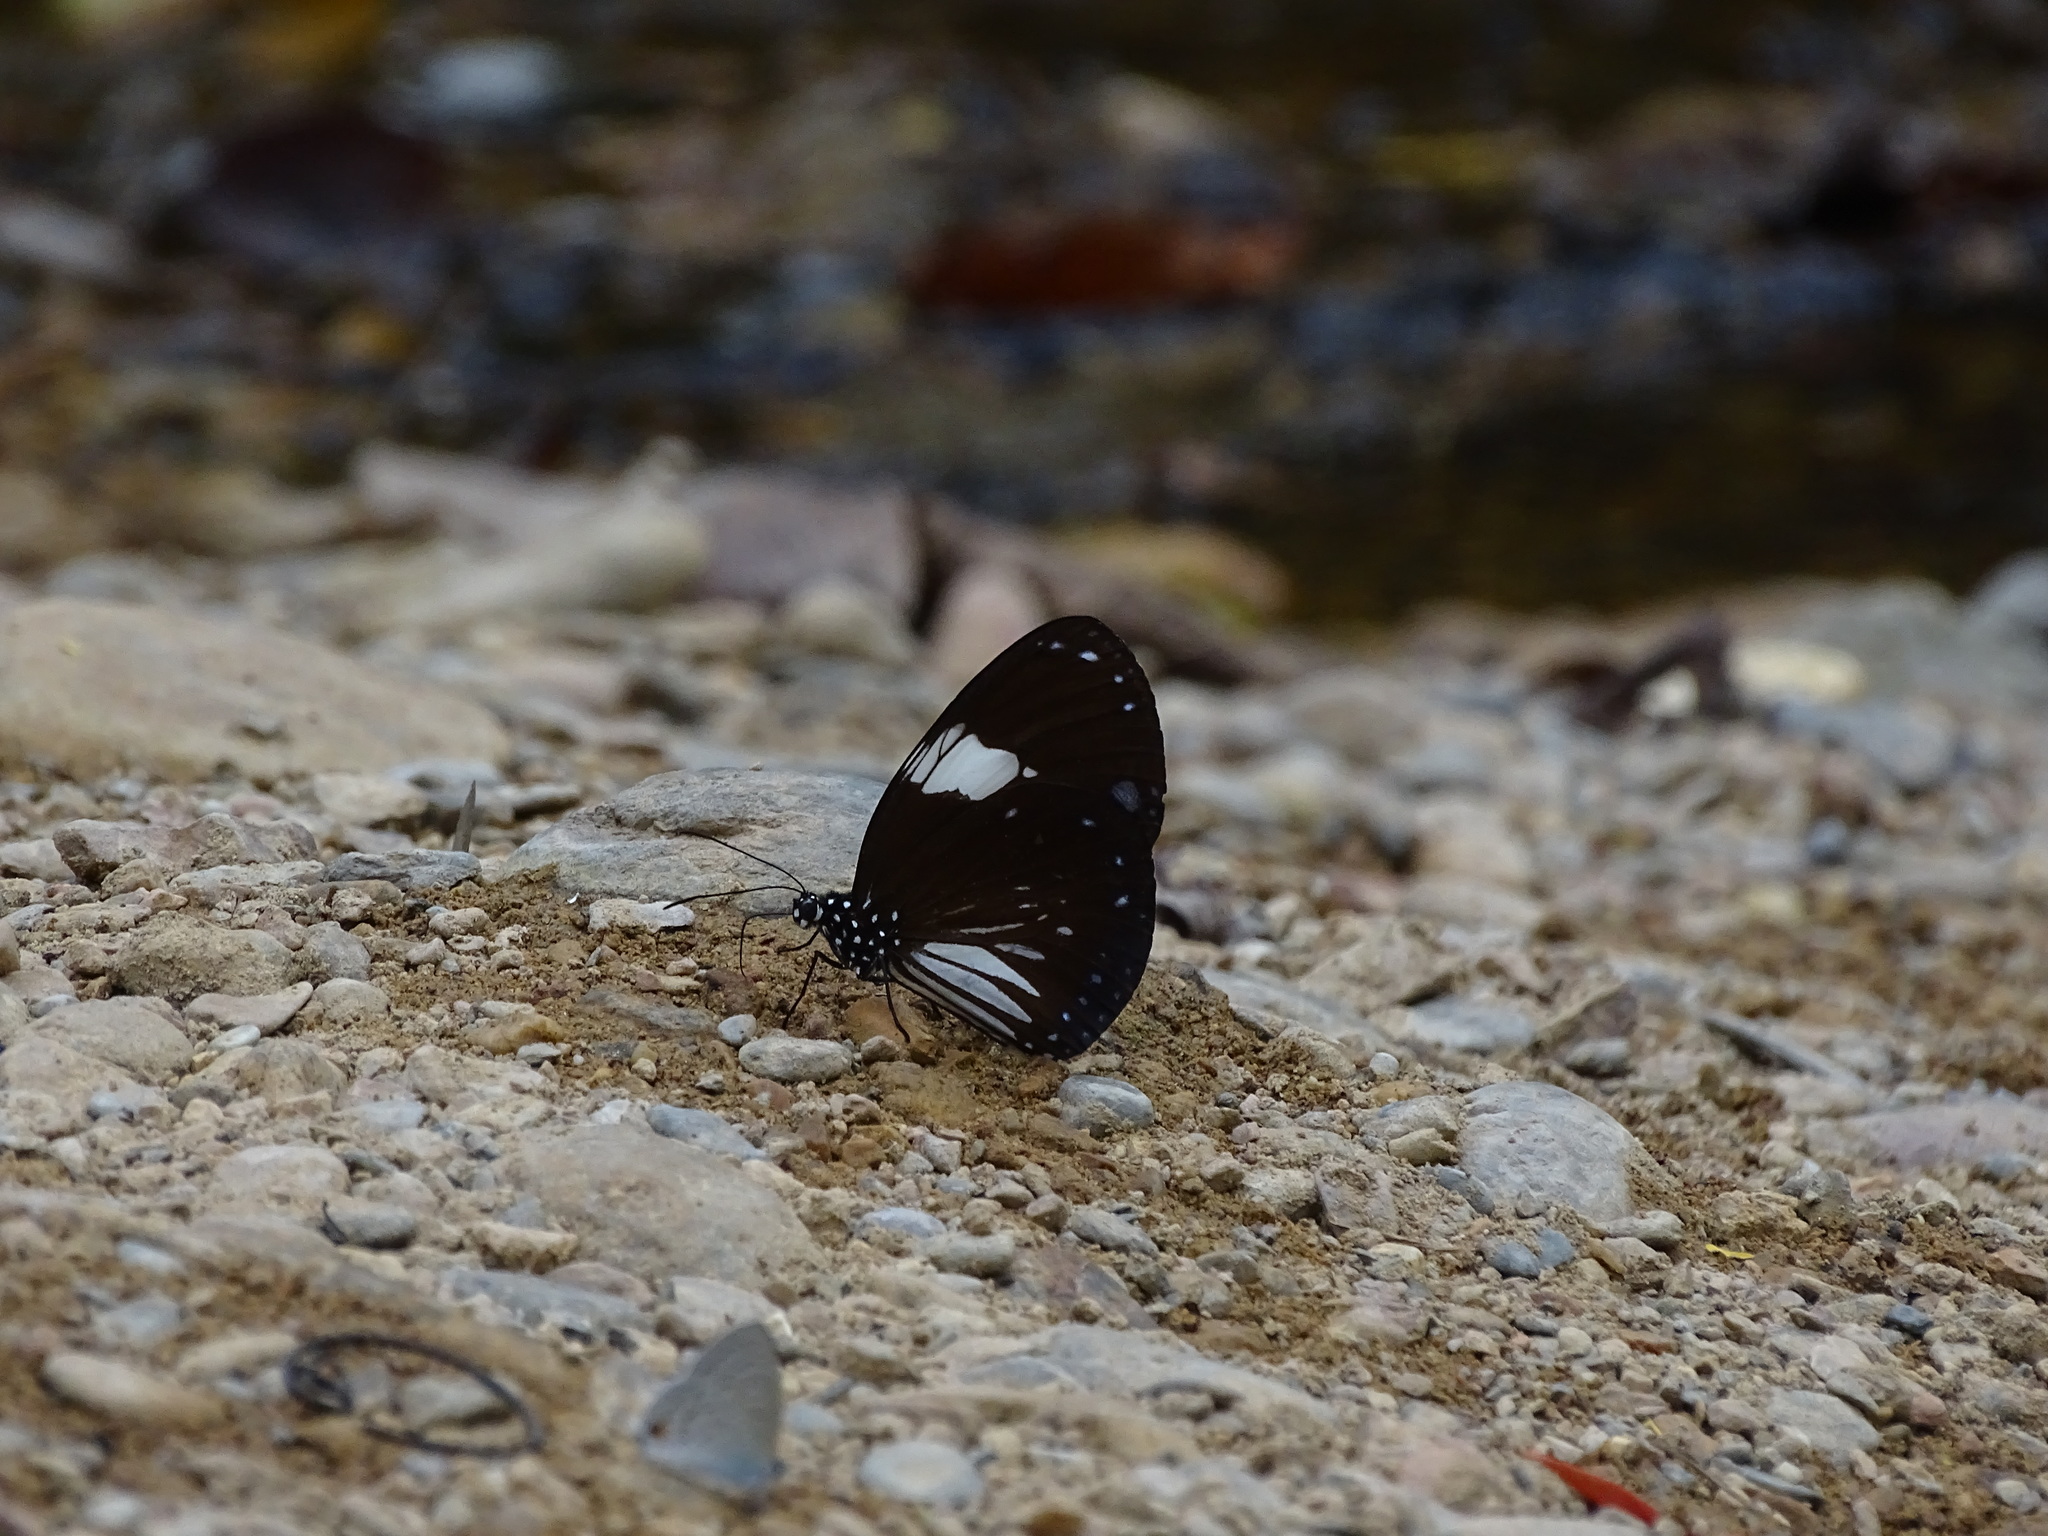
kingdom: Animalia
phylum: Arthropoda
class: Insecta
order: Lepidoptera
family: Nymphalidae
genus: Euploea
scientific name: Euploea radamanthus
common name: Magpie crow butterfly
